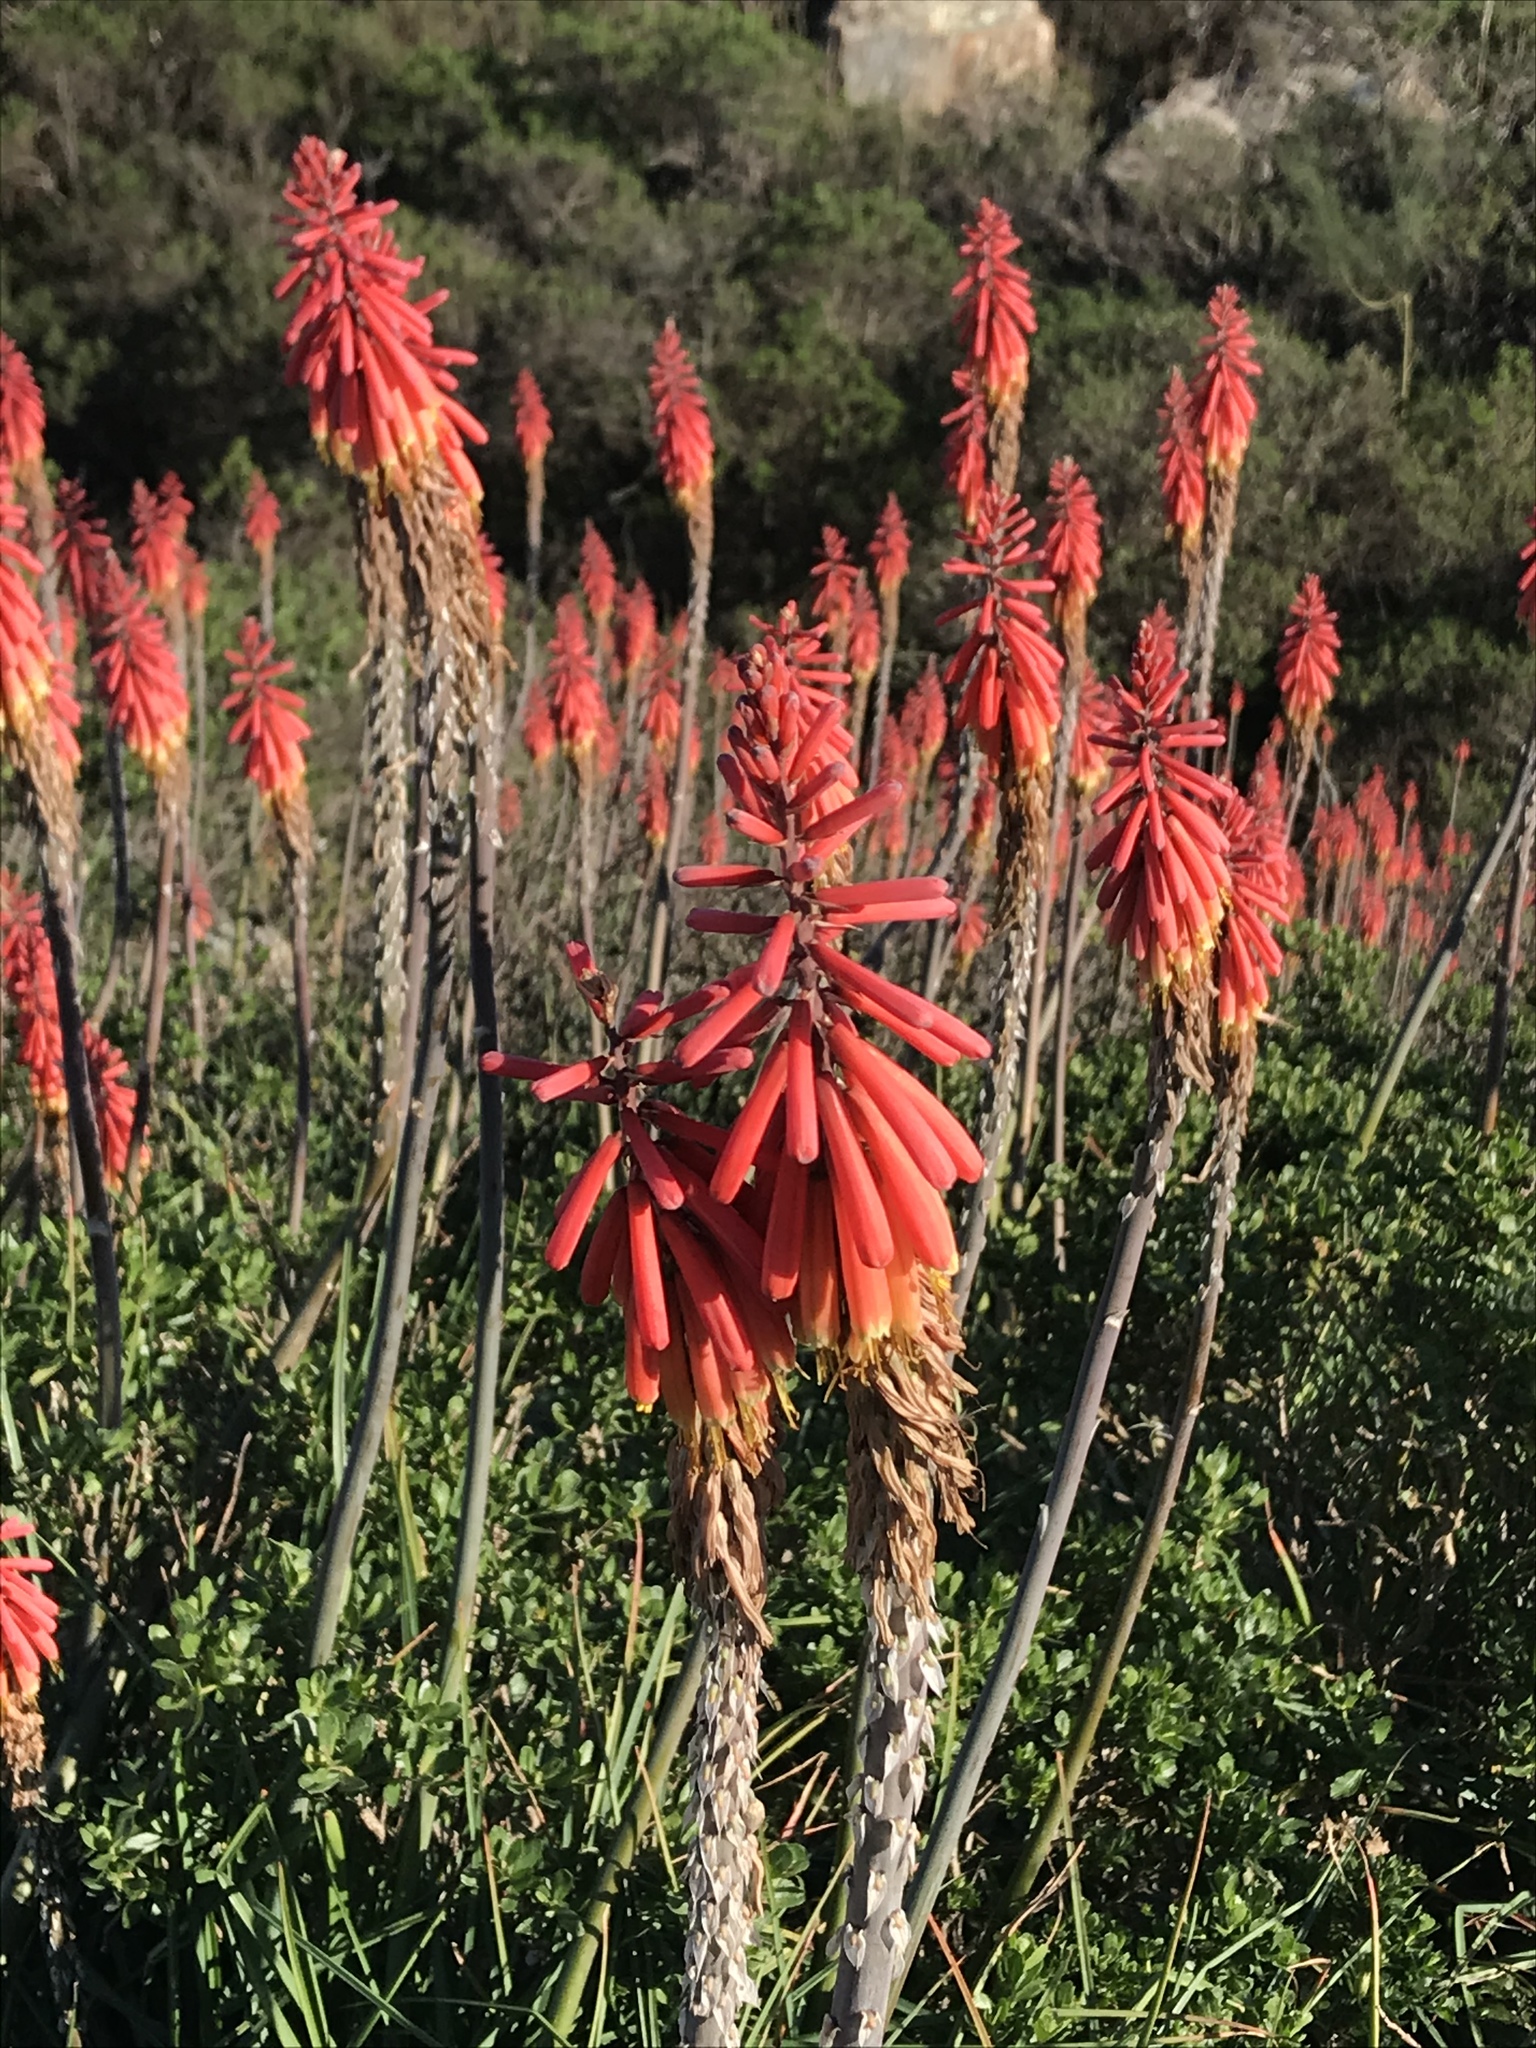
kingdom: Plantae
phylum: Tracheophyta
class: Liliopsida
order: Asparagales
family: Asphodelaceae
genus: Kniphofia
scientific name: Kniphofia uvaria
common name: Red-hot-poker
